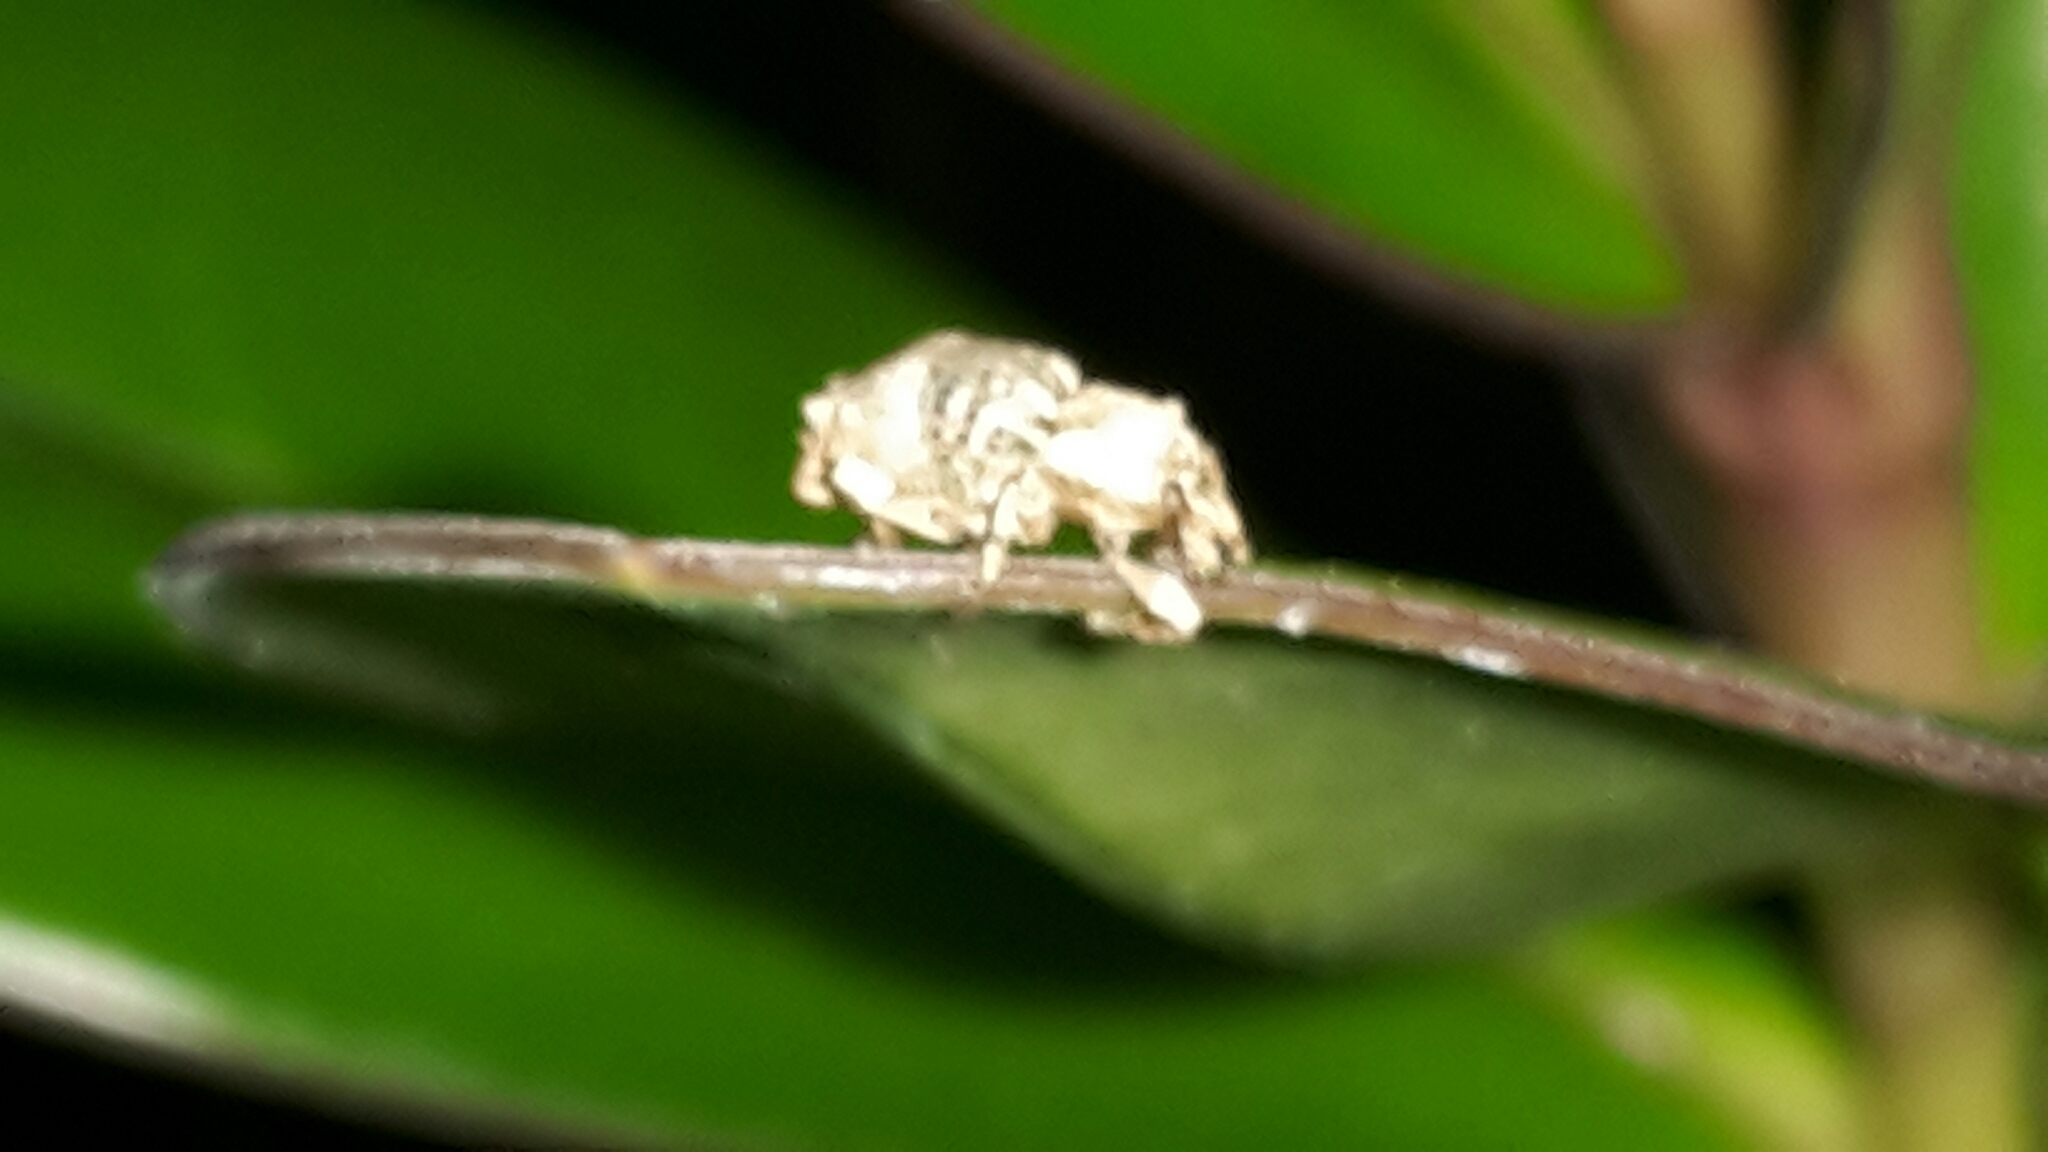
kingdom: Animalia
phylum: Arthropoda
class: Insecta
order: Coleoptera
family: Curculionidae
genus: Brachyolus
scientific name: Brachyolus punctatus
